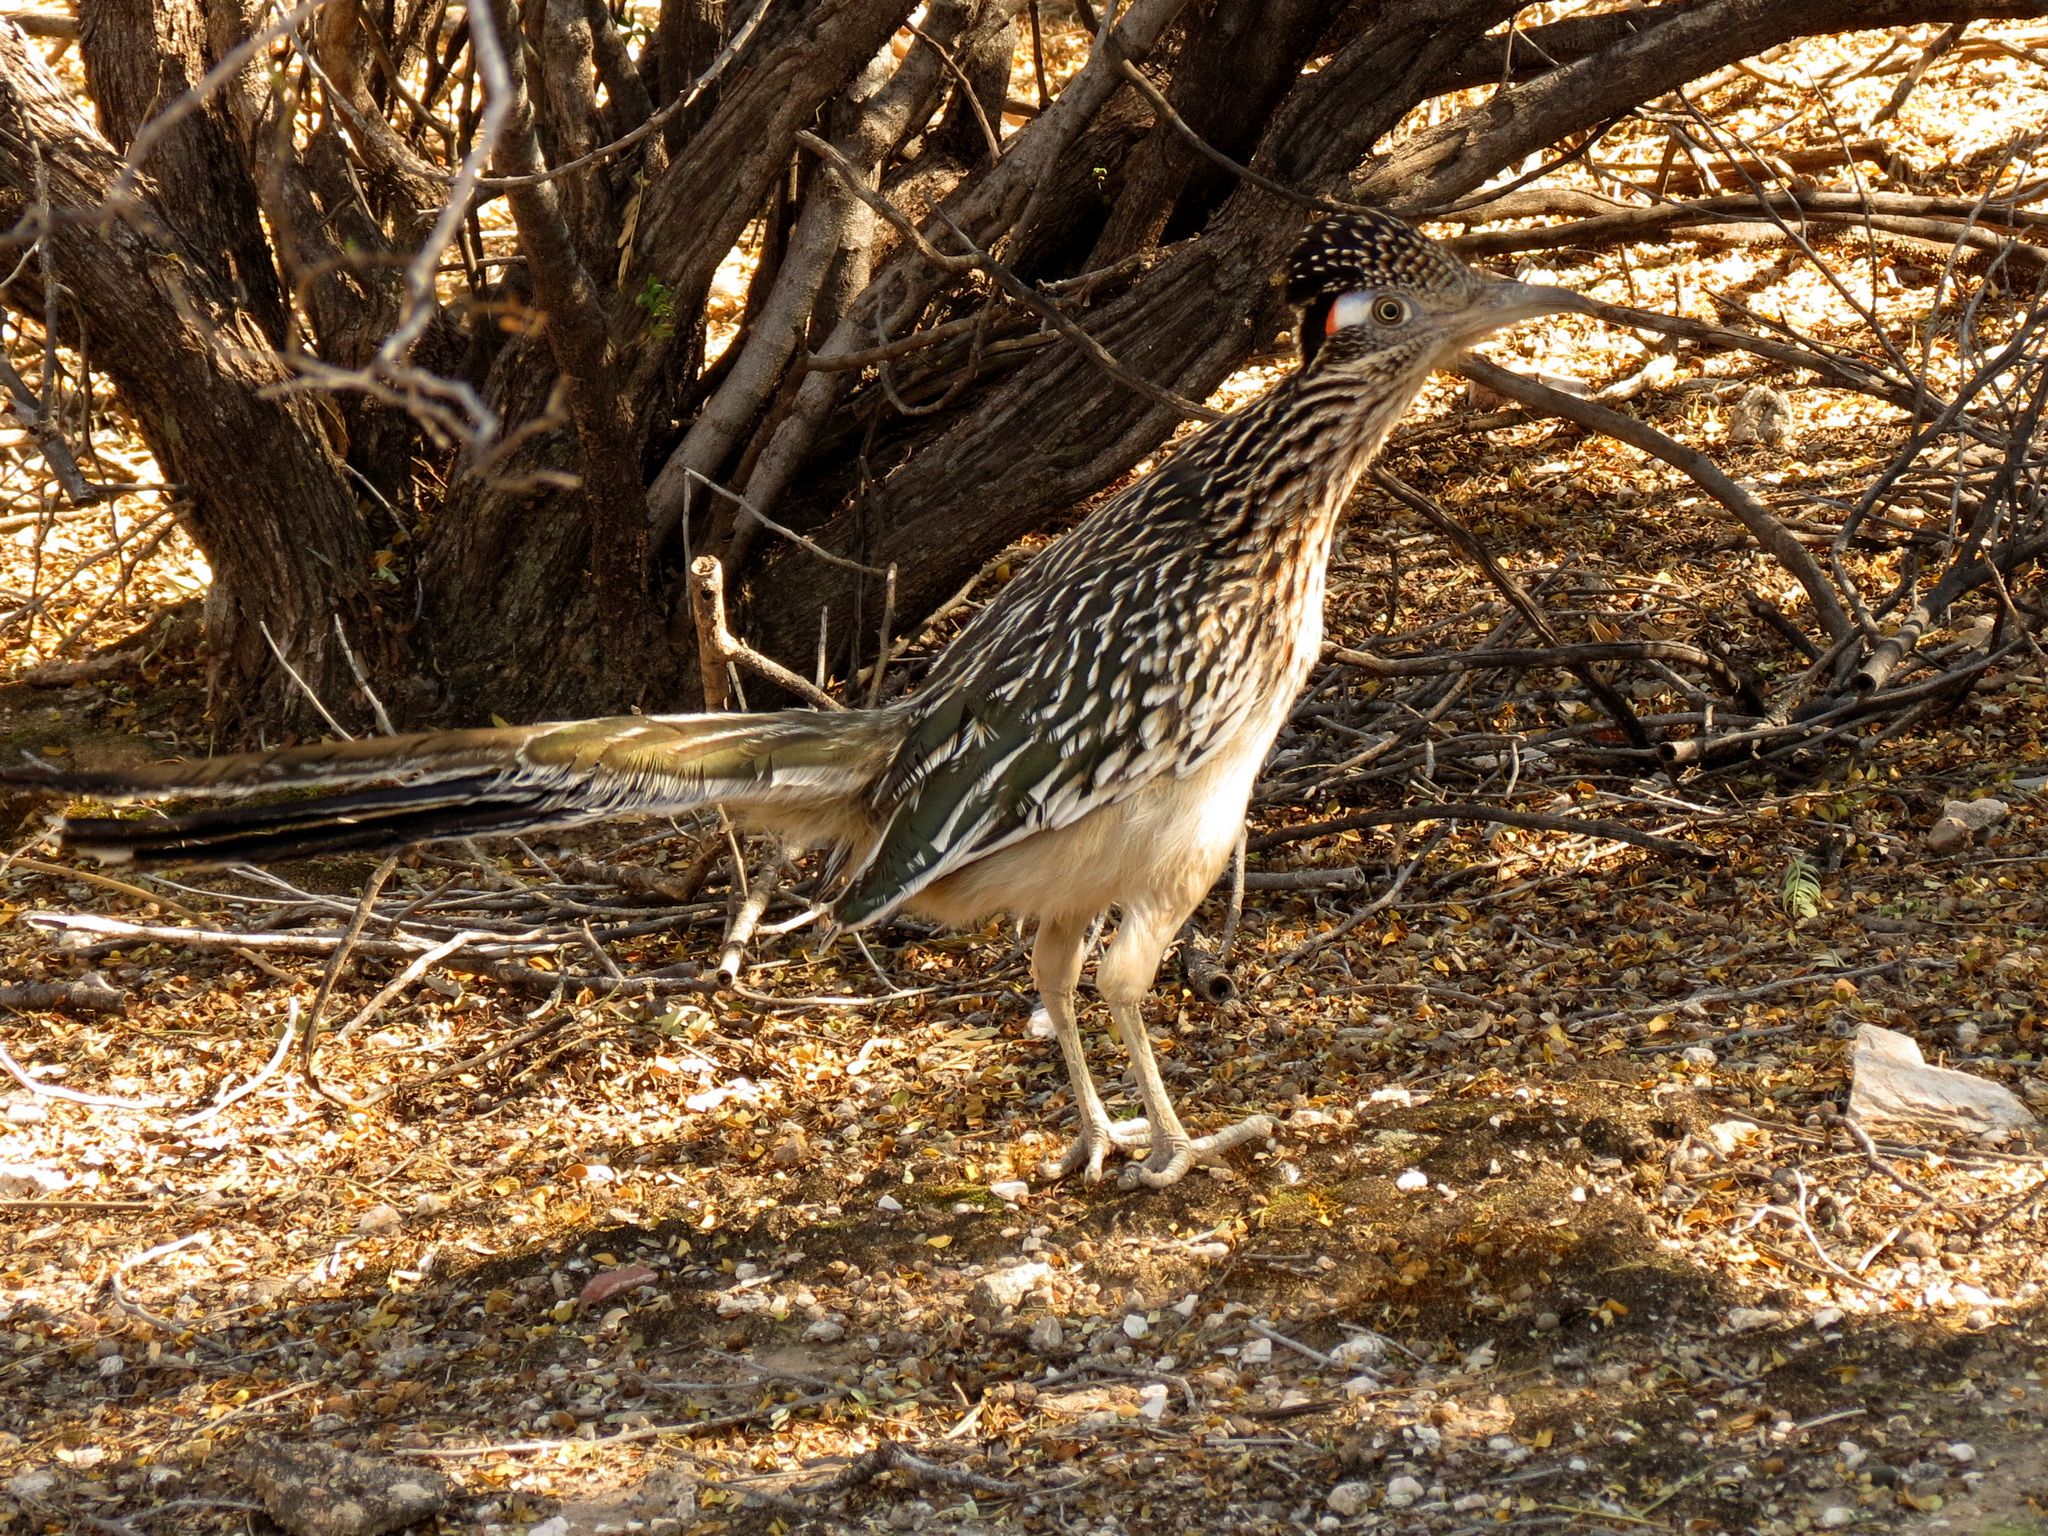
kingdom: Animalia
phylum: Chordata
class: Aves
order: Cuculiformes
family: Cuculidae
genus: Geococcyx
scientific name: Geococcyx californianus
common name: Greater roadrunner
